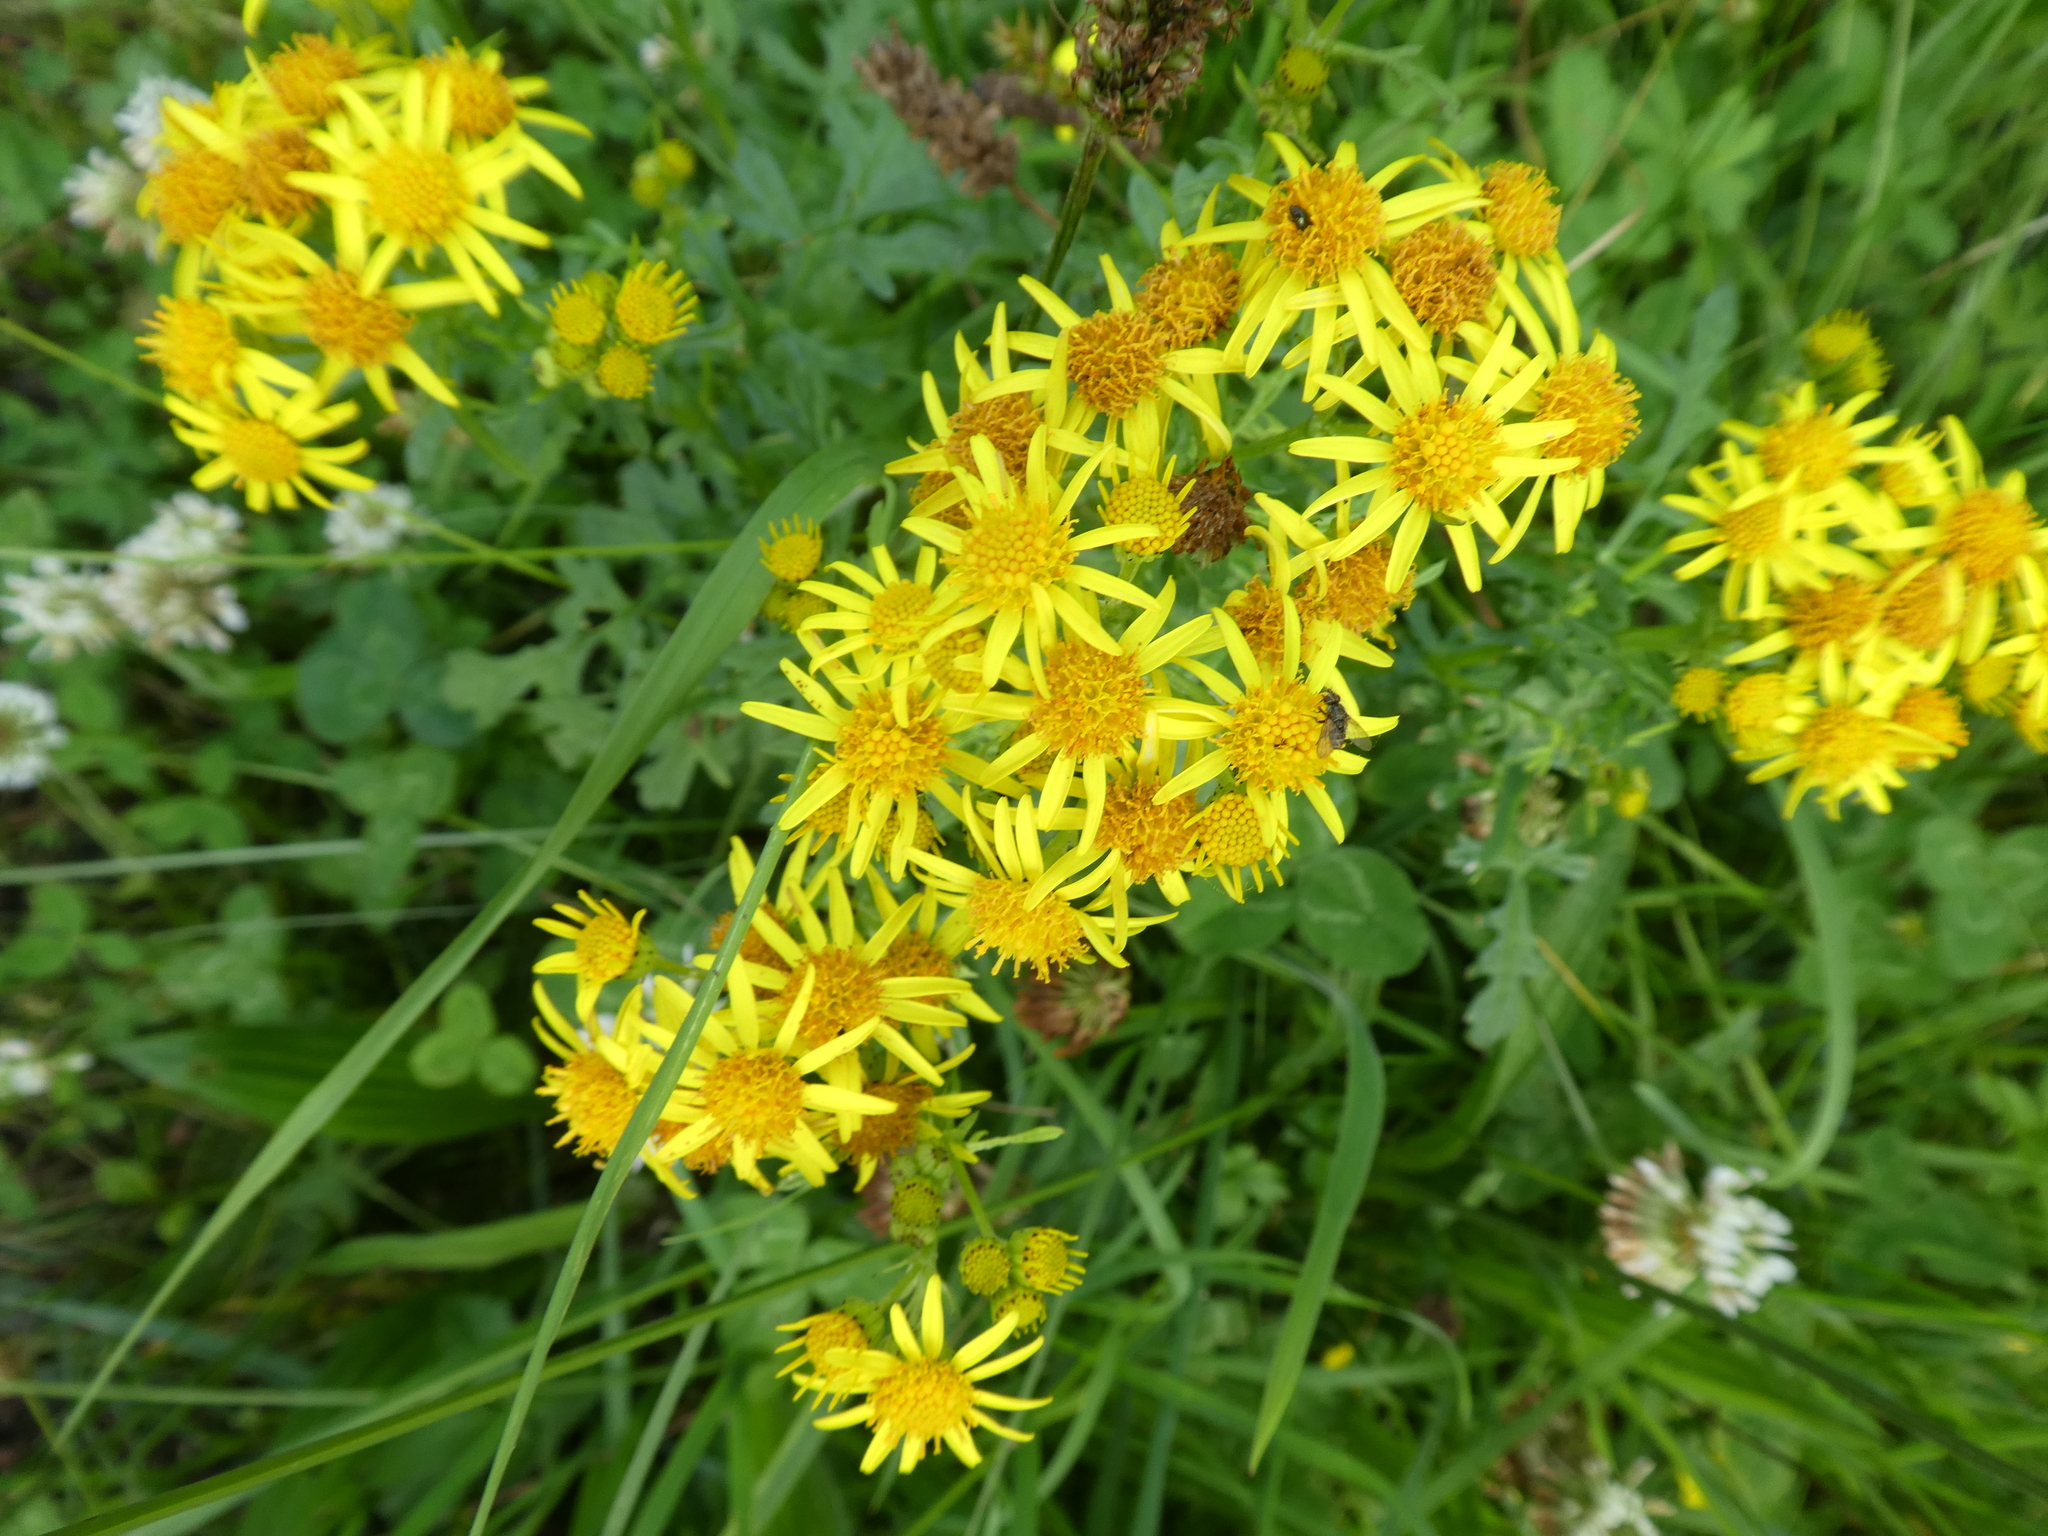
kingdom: Plantae
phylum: Tracheophyta
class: Magnoliopsida
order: Asterales
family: Asteraceae
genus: Jacobaea
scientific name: Jacobaea vulgaris
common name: Stinking willie
